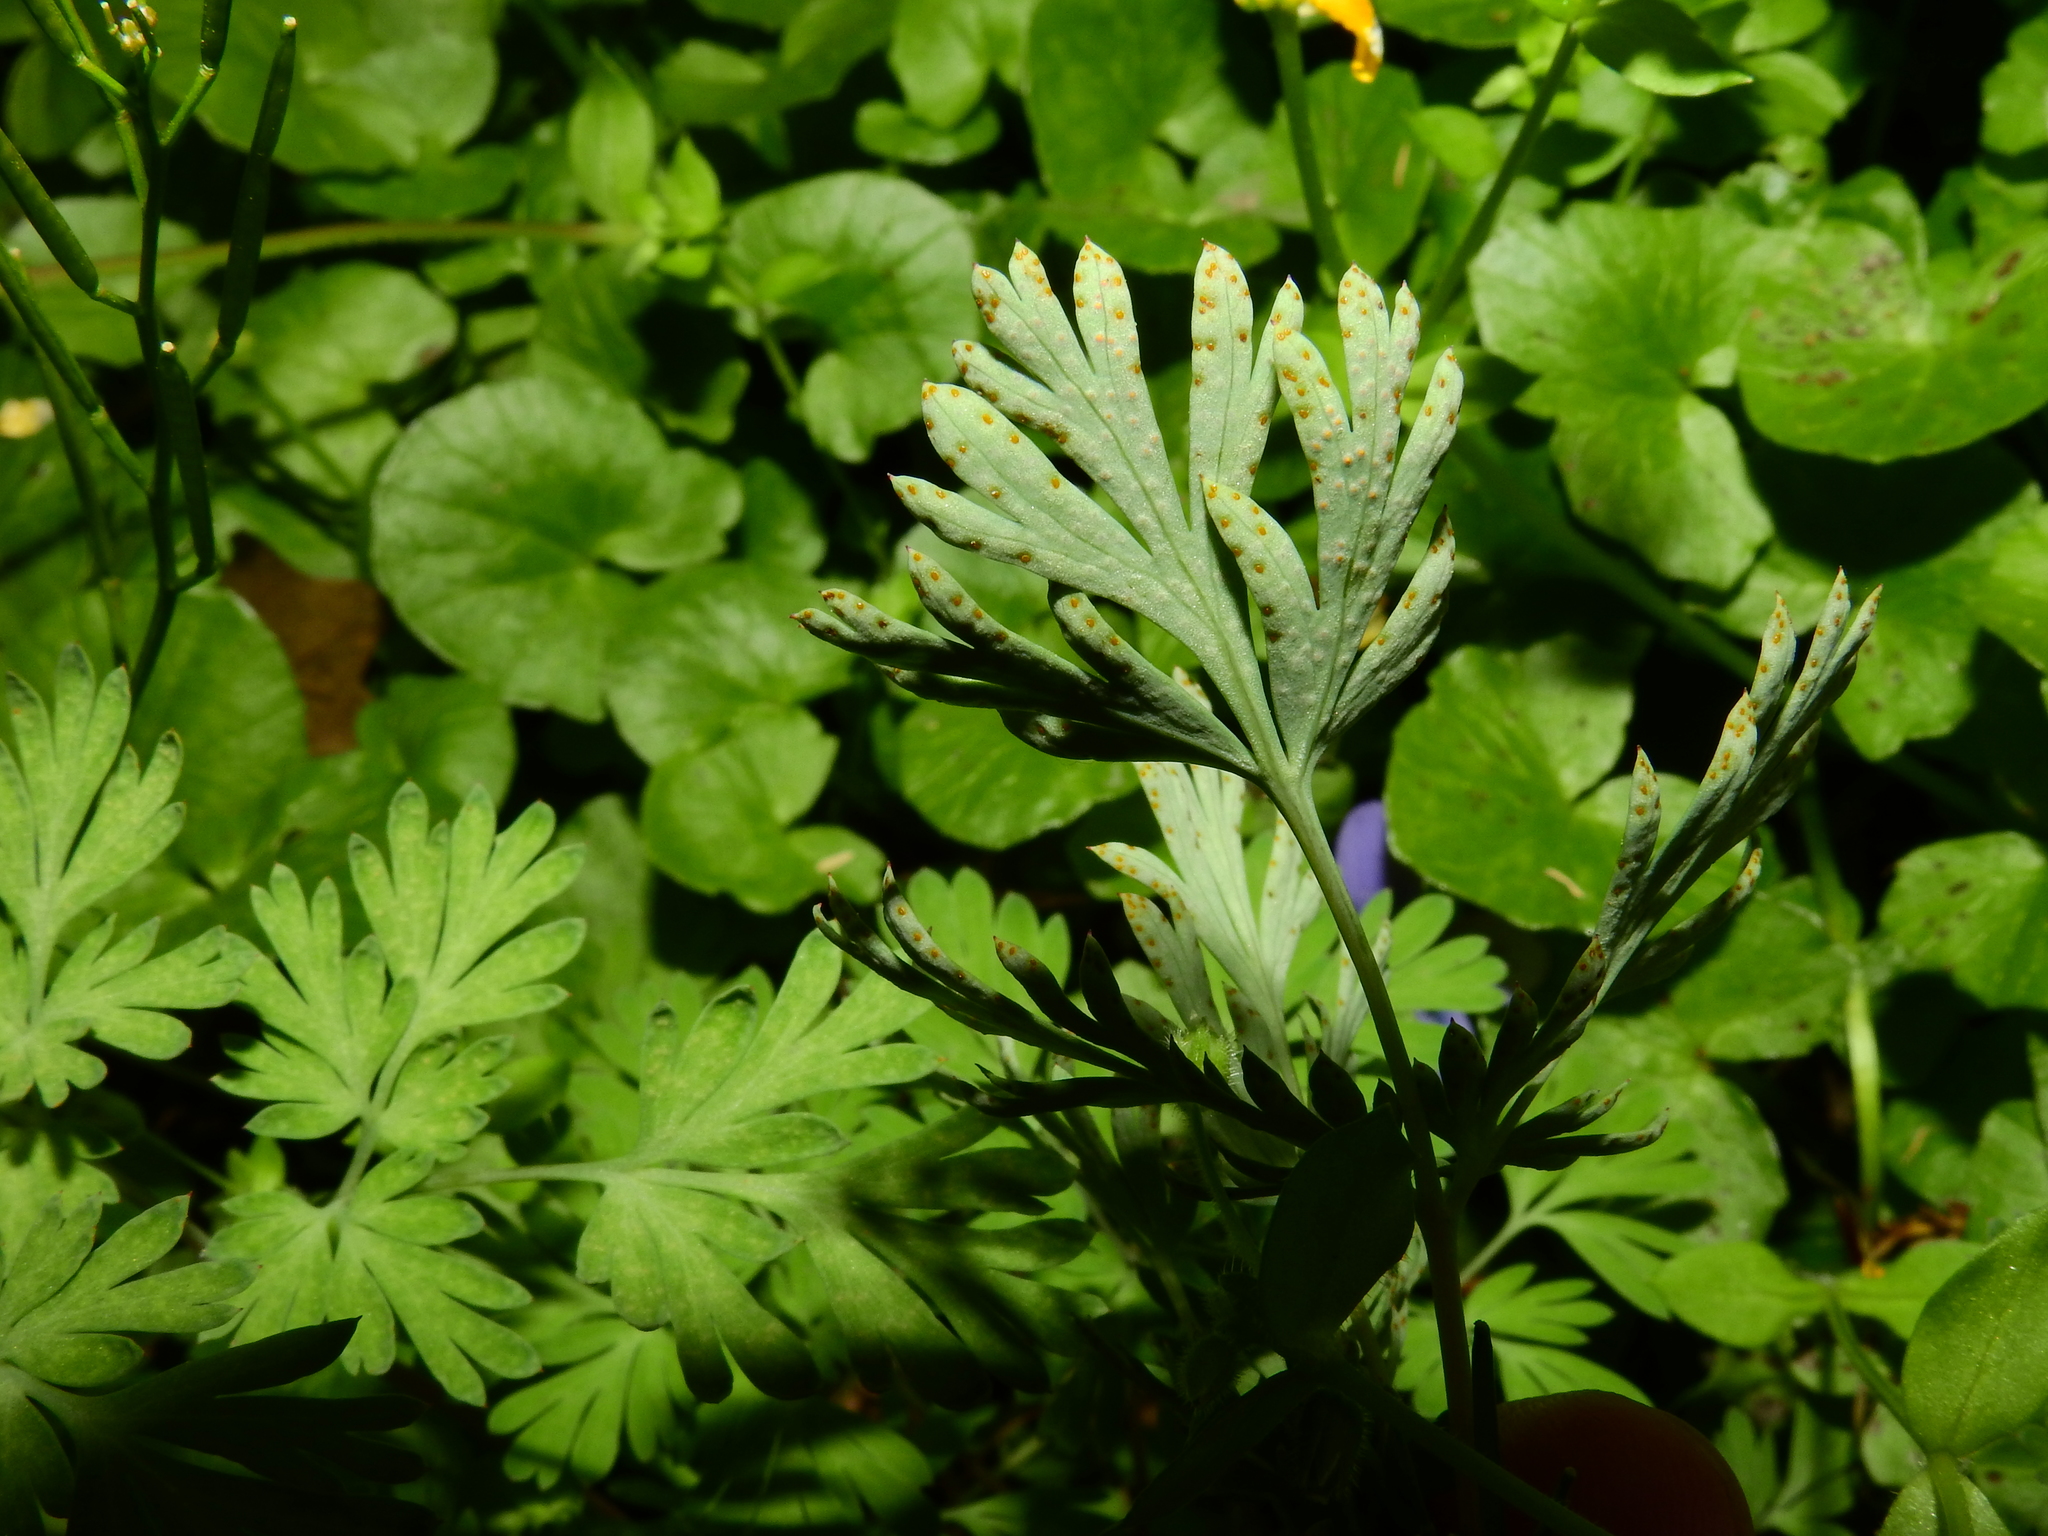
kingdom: Fungi
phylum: Basidiomycota
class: Pucciniomycetes
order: Pucciniales
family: Chaconiaceae
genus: Aplopsora
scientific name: Aplopsora dicentrae
